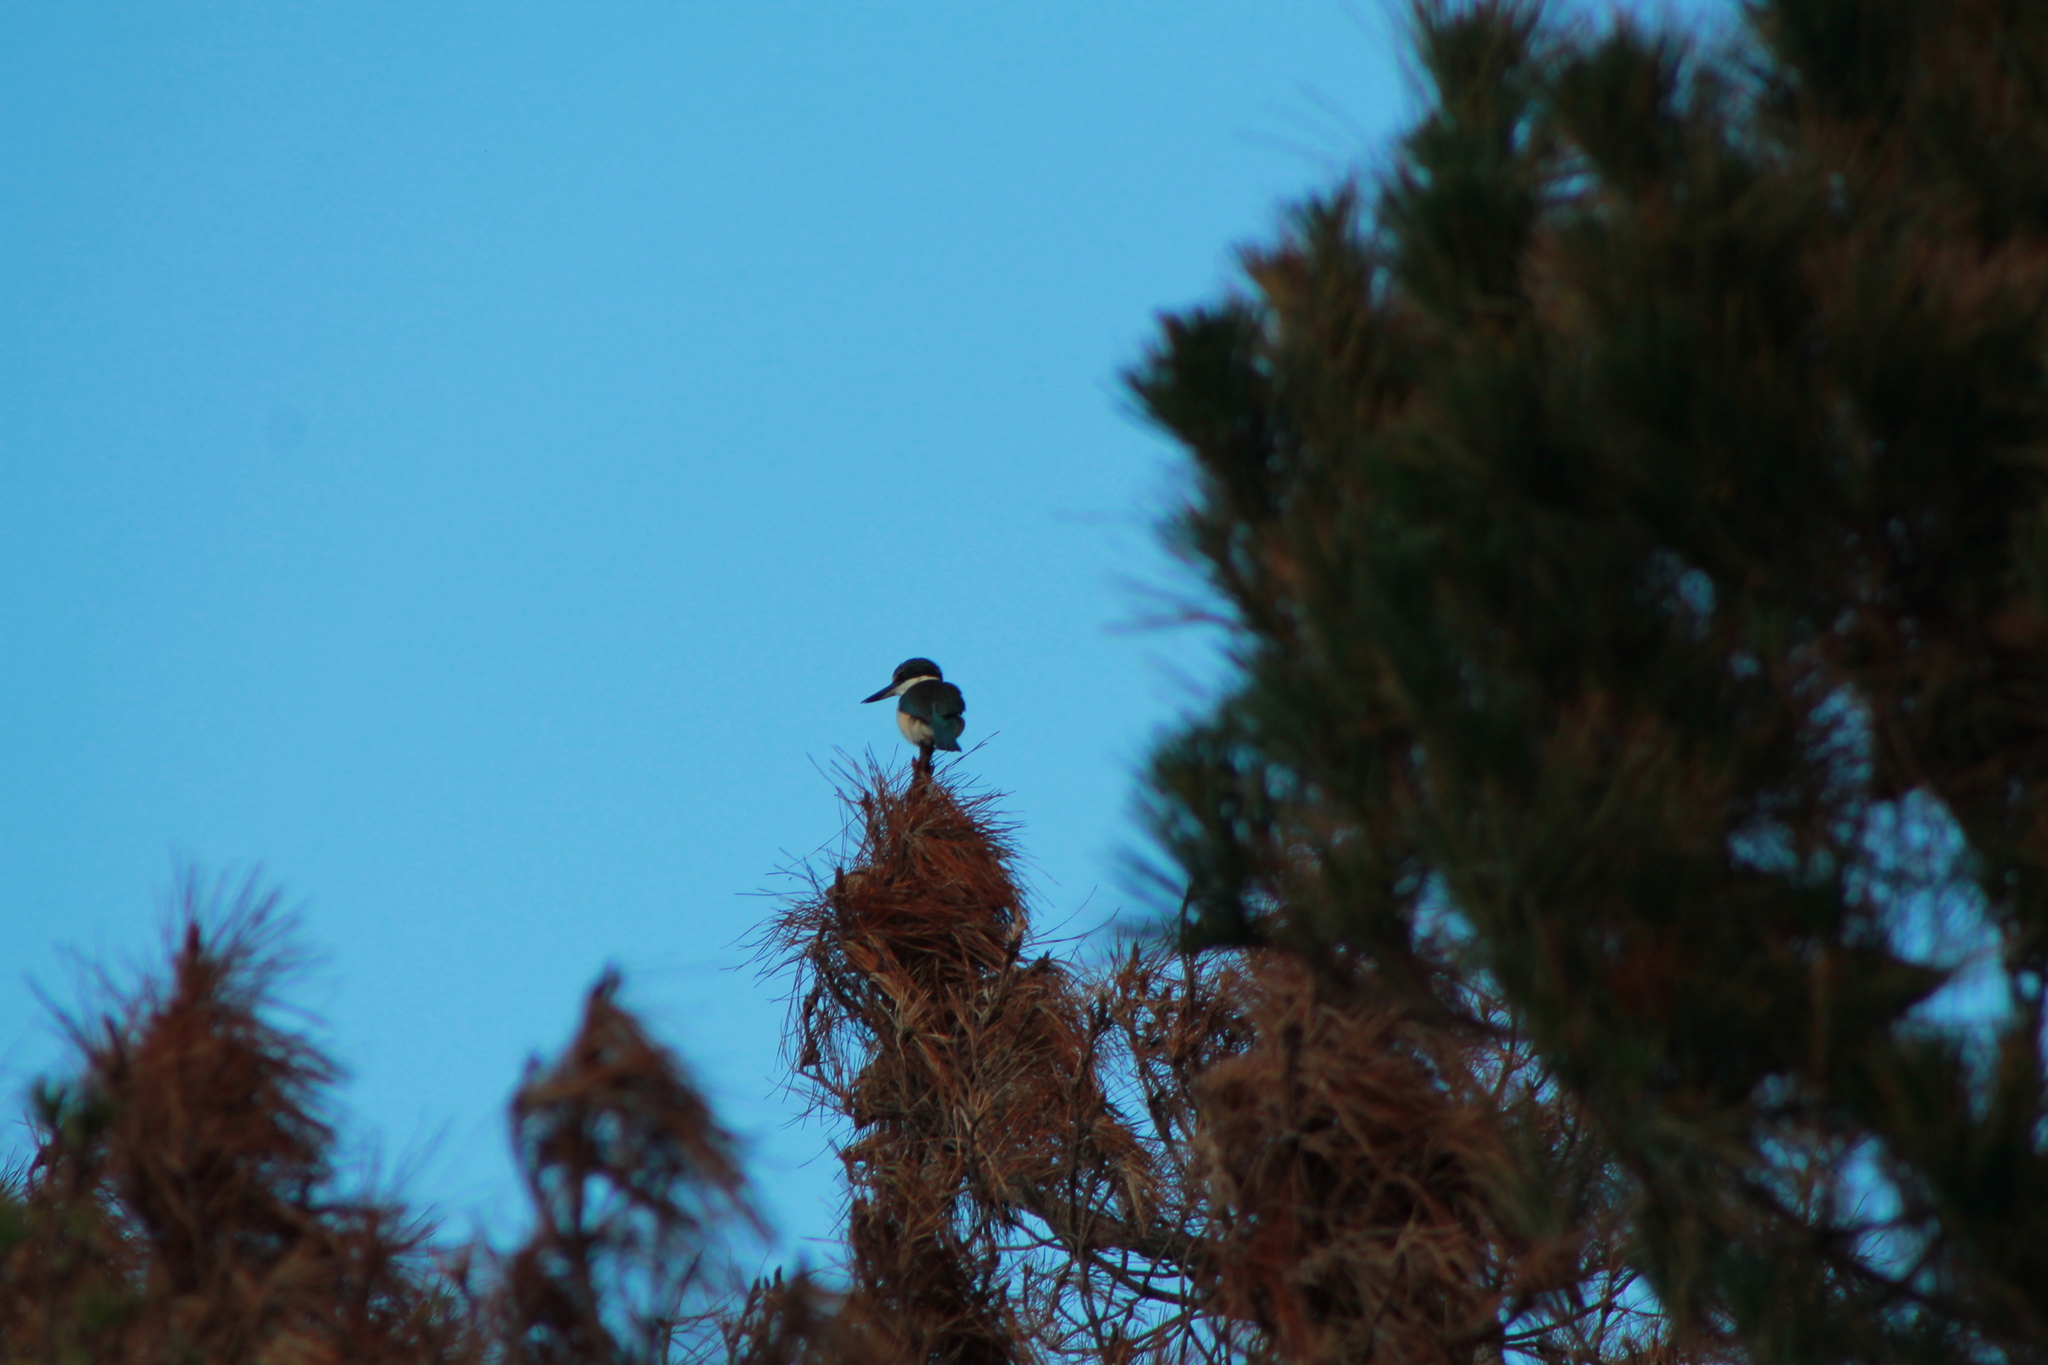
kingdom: Animalia
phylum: Chordata
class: Aves
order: Coraciiformes
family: Alcedinidae
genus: Todiramphus
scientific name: Todiramphus sanctus
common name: Sacred kingfisher
